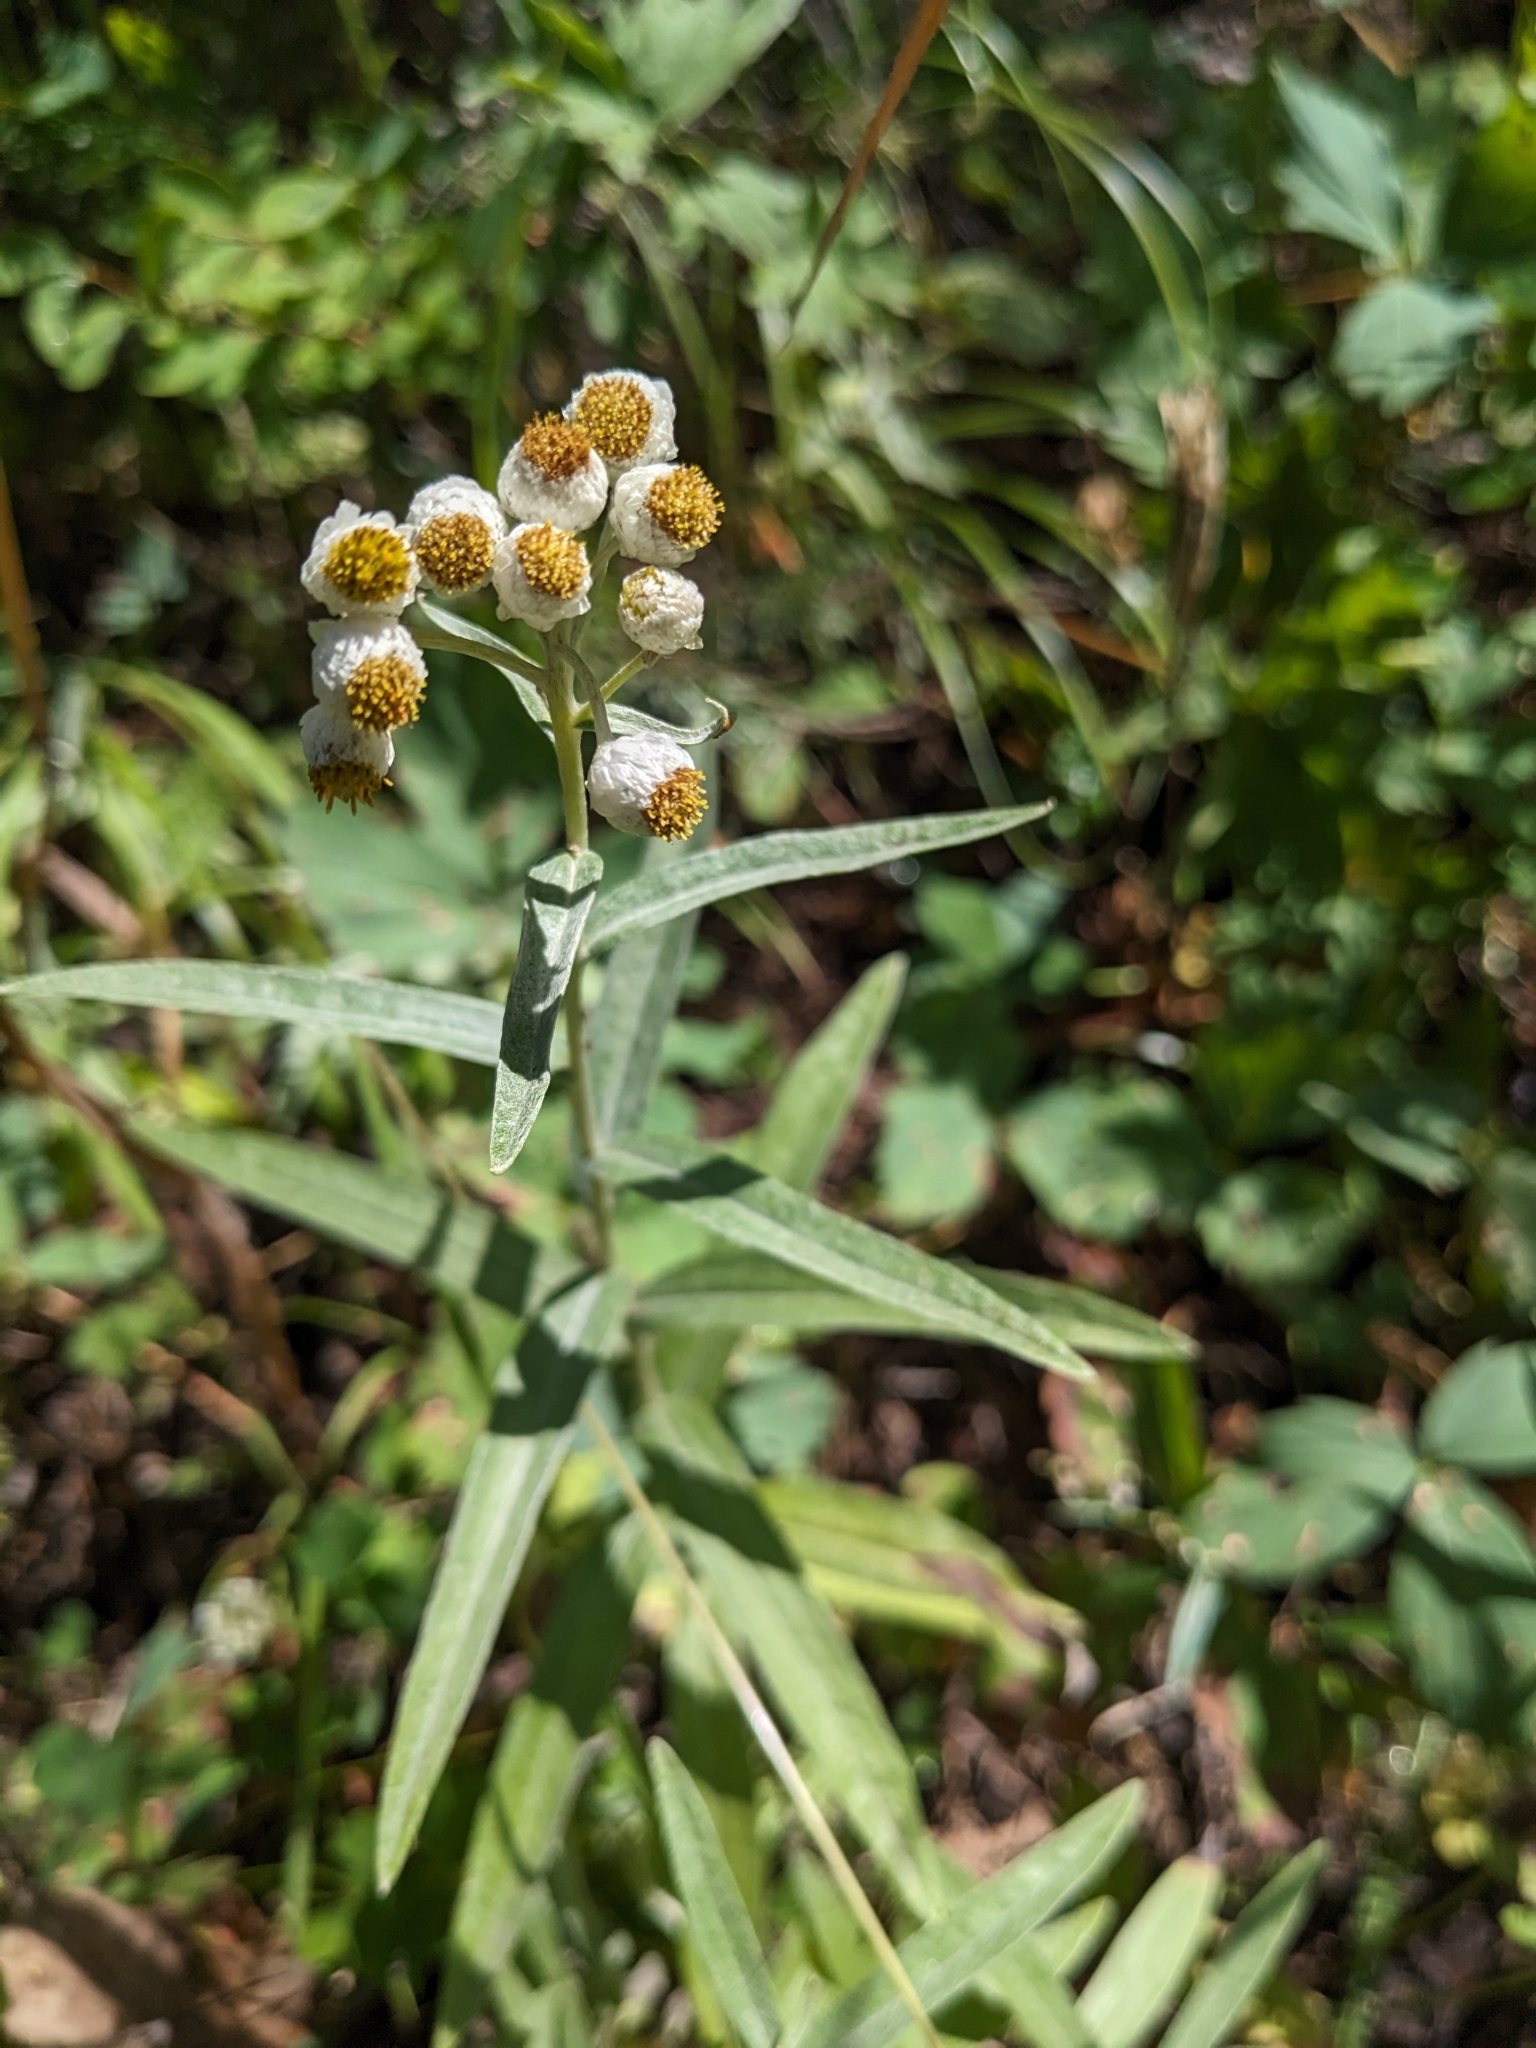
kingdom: Plantae
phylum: Tracheophyta
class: Magnoliopsida
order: Asterales
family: Asteraceae
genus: Anaphalis
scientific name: Anaphalis margaritacea
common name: Pearly everlasting
